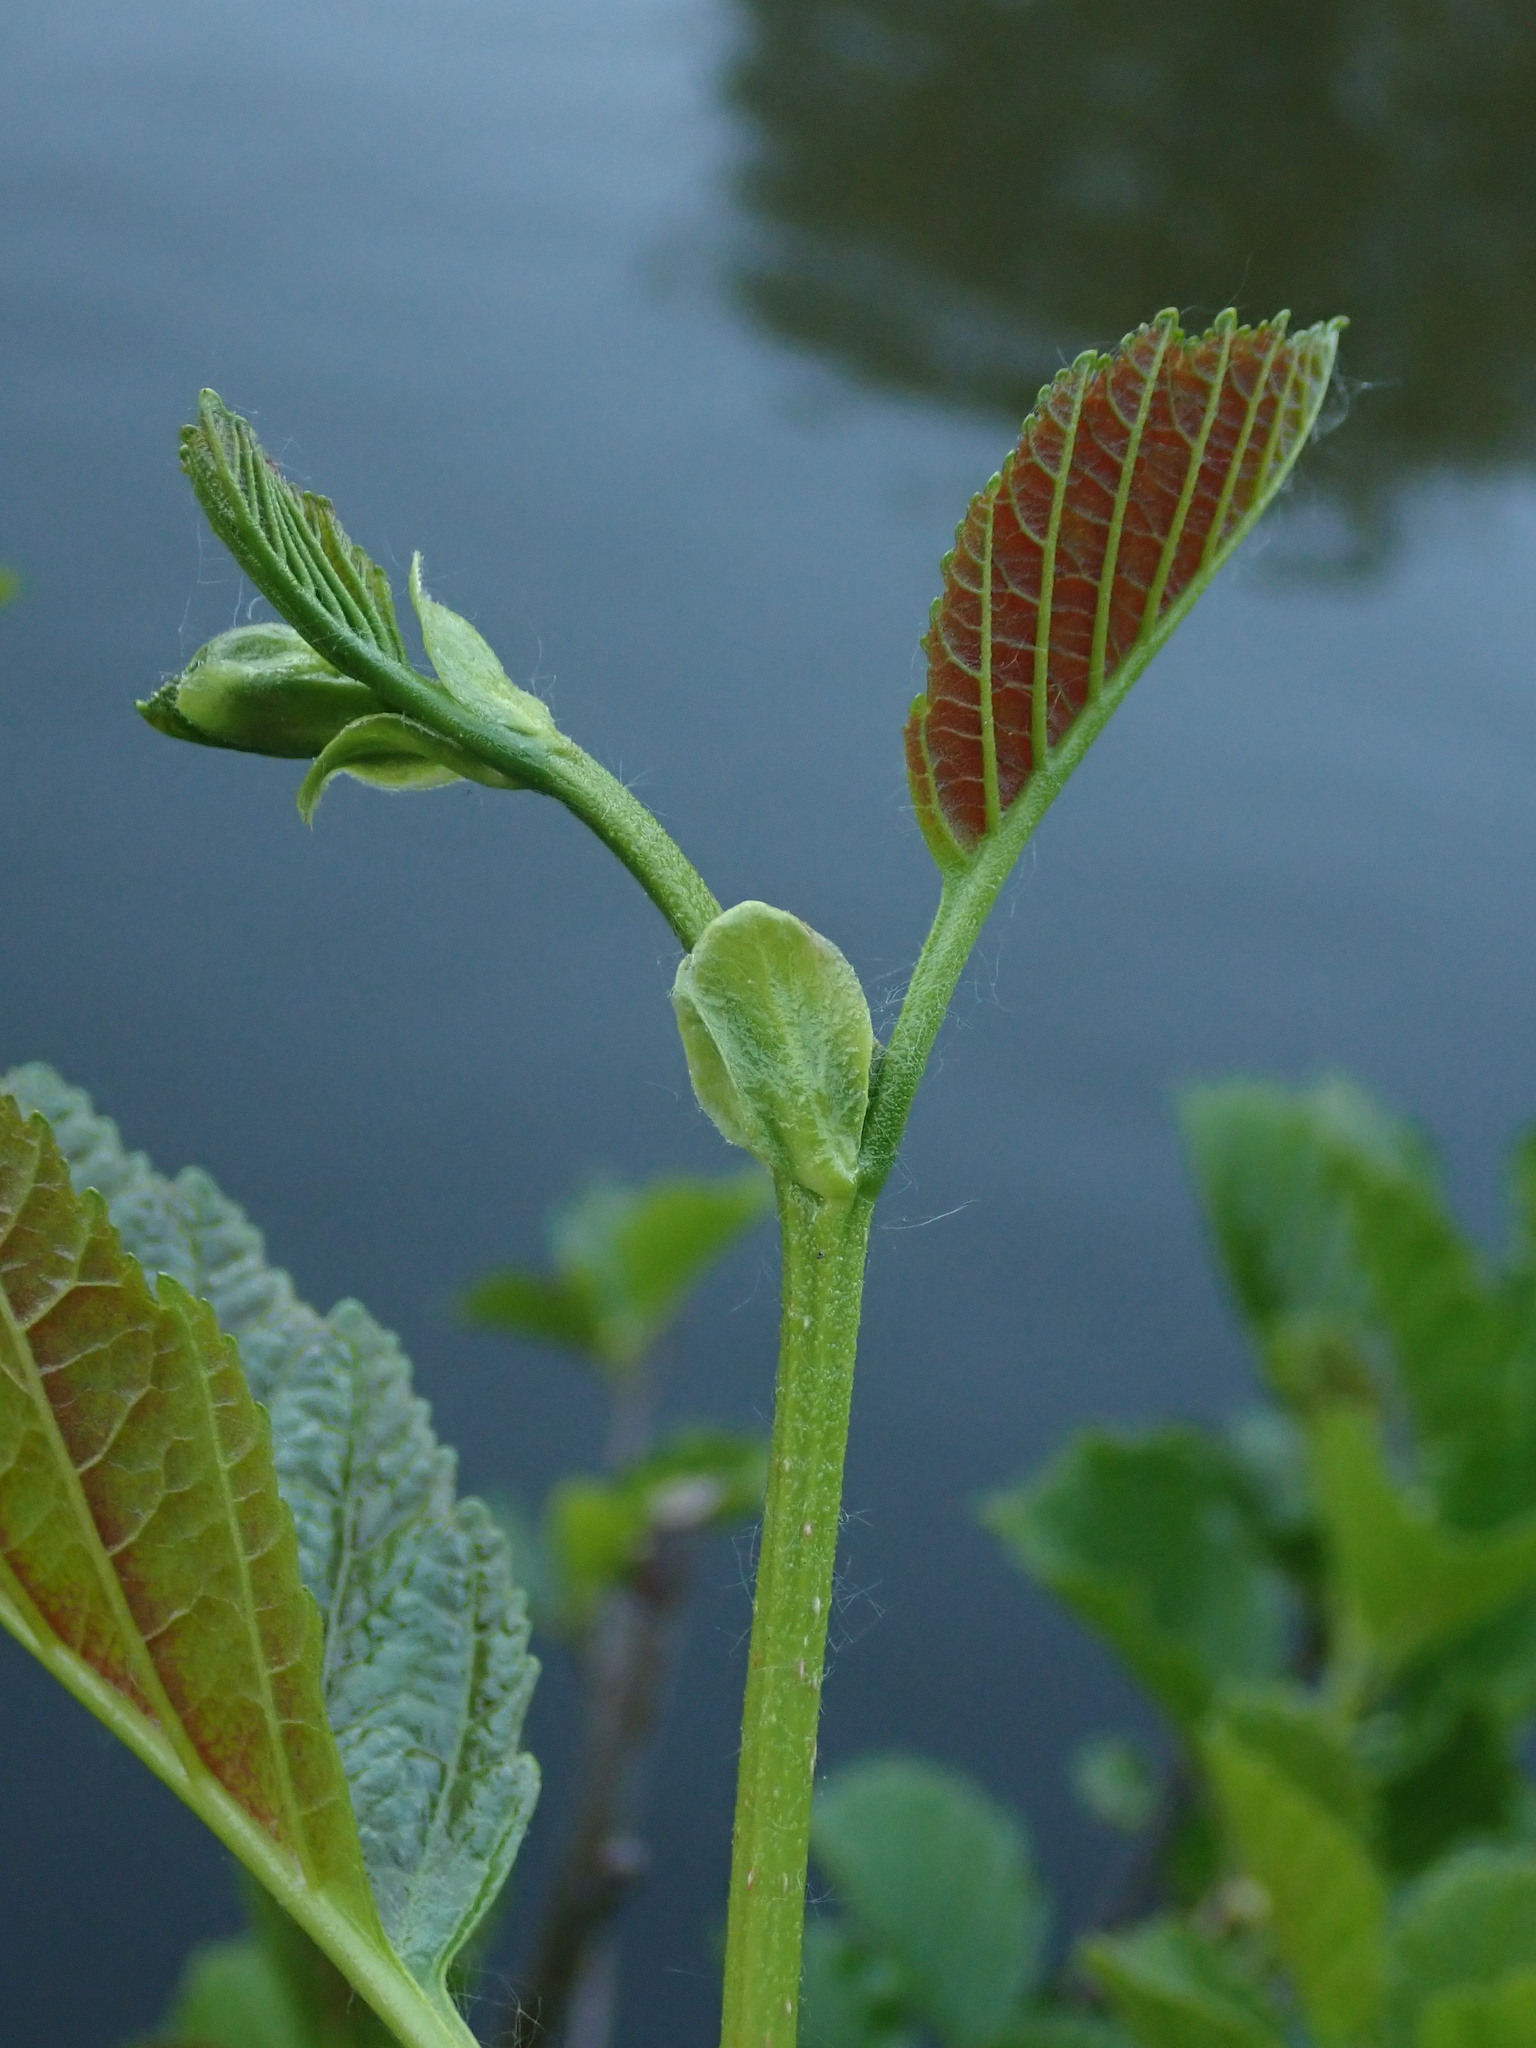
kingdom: Plantae
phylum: Tracheophyta
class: Magnoliopsida
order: Fagales
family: Betulaceae
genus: Alnus
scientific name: Alnus glutinosa
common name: Black alder
